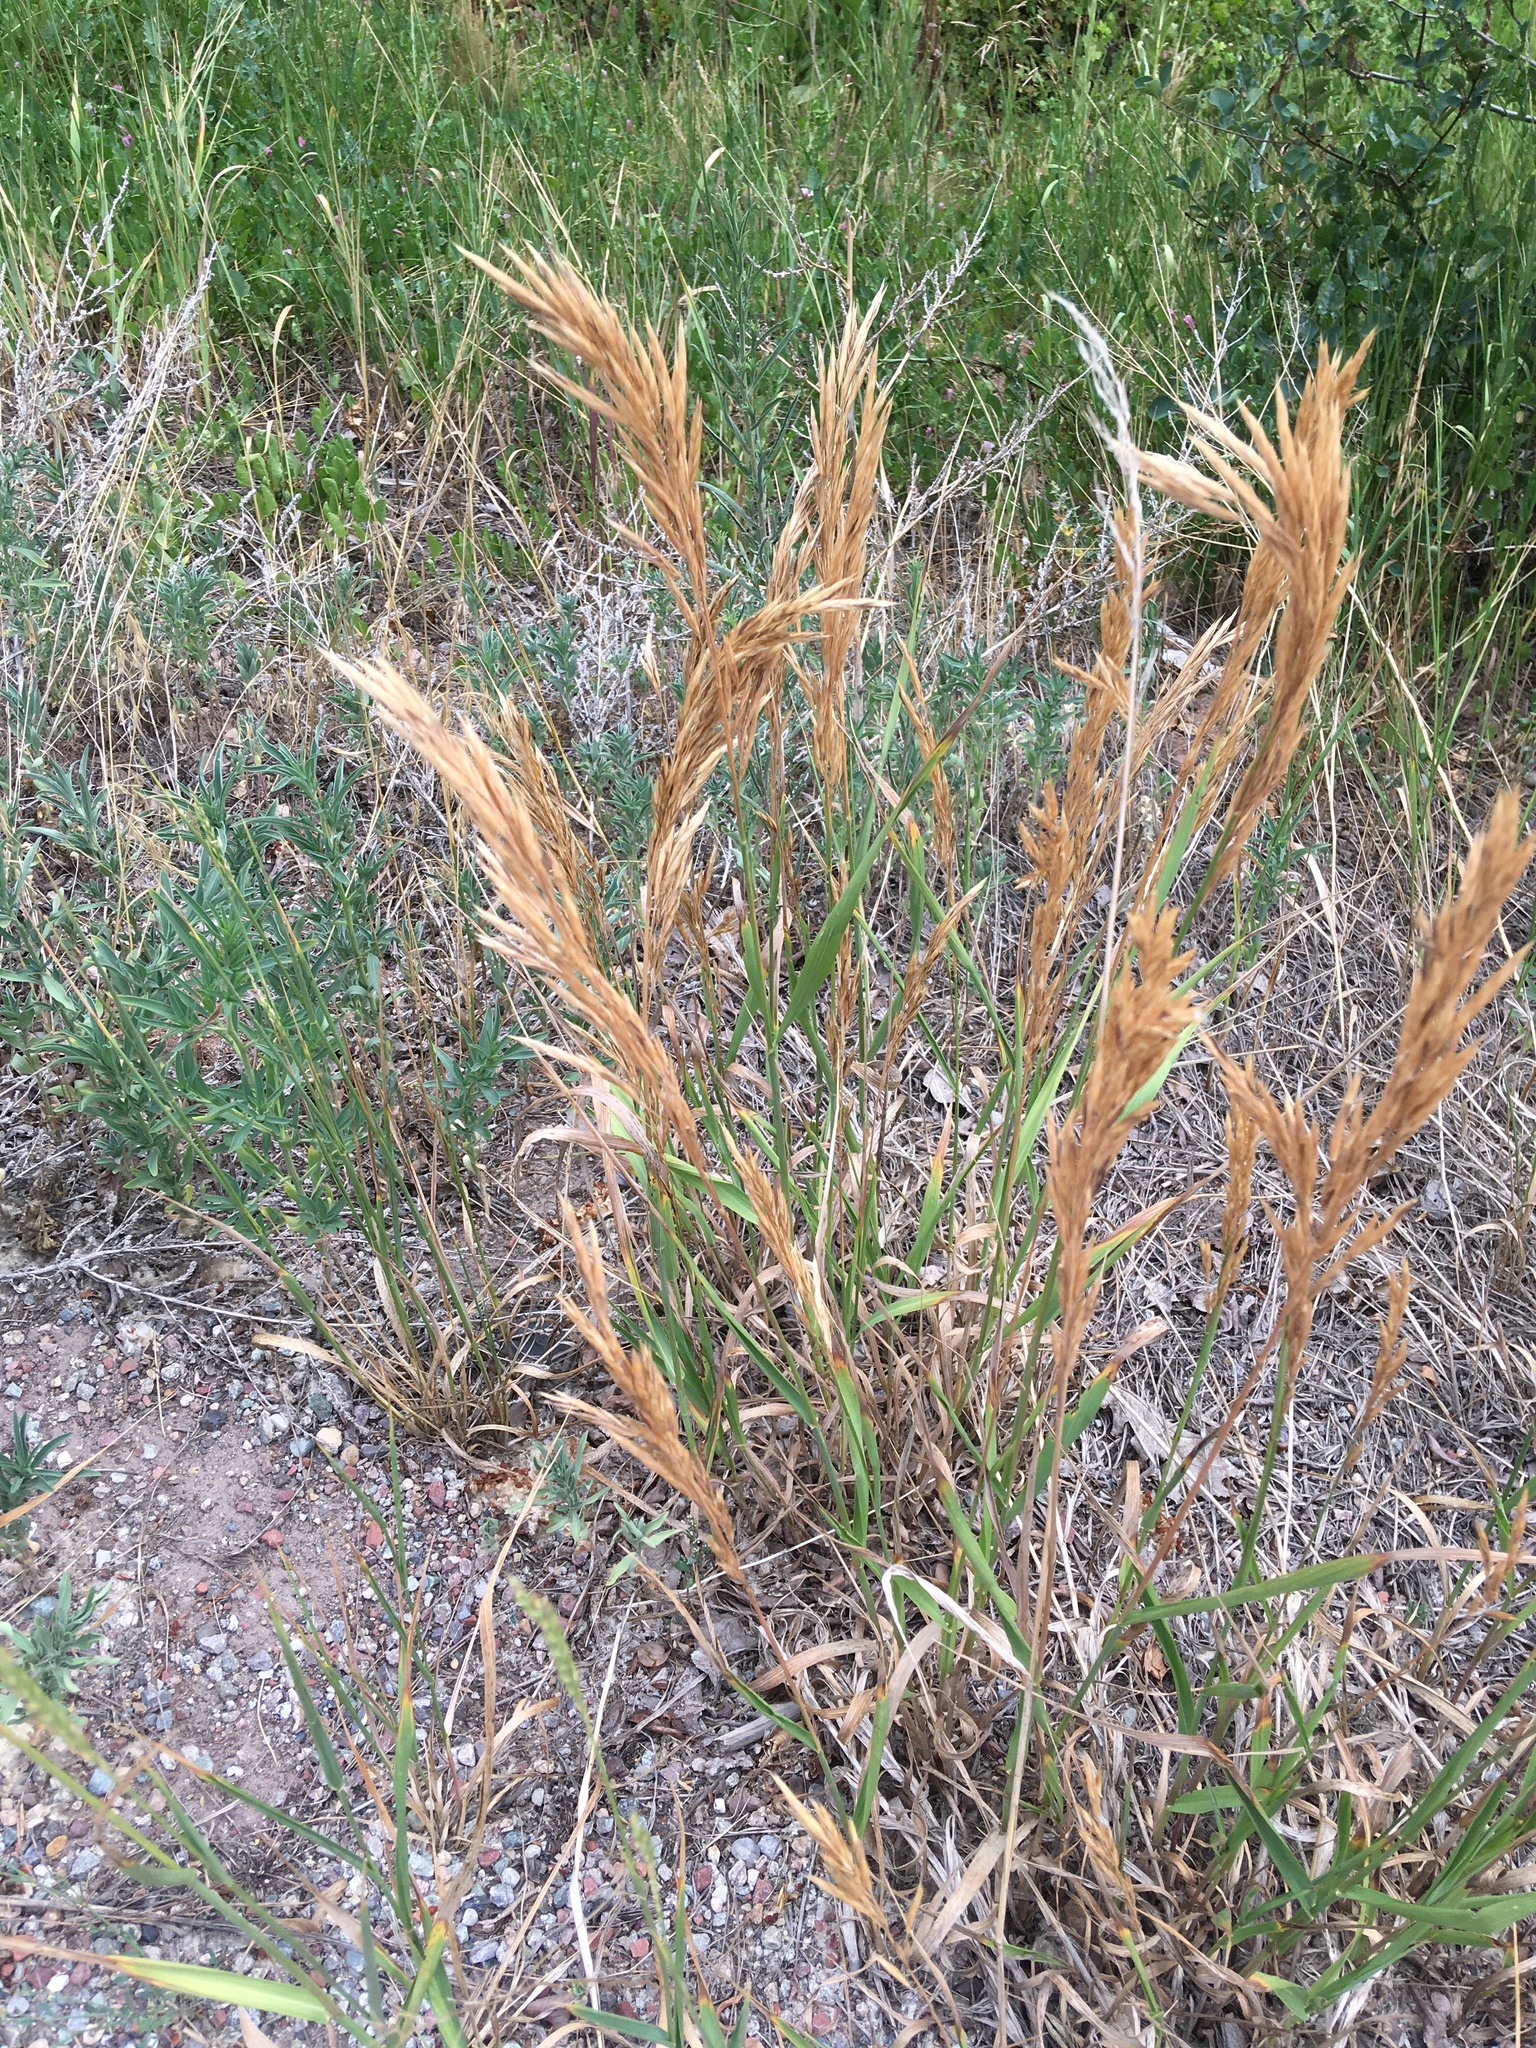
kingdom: Plantae
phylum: Tracheophyta
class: Liliopsida
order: Poales
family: Poaceae
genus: Bromus
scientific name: Bromus inermis
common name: Smooth brome
